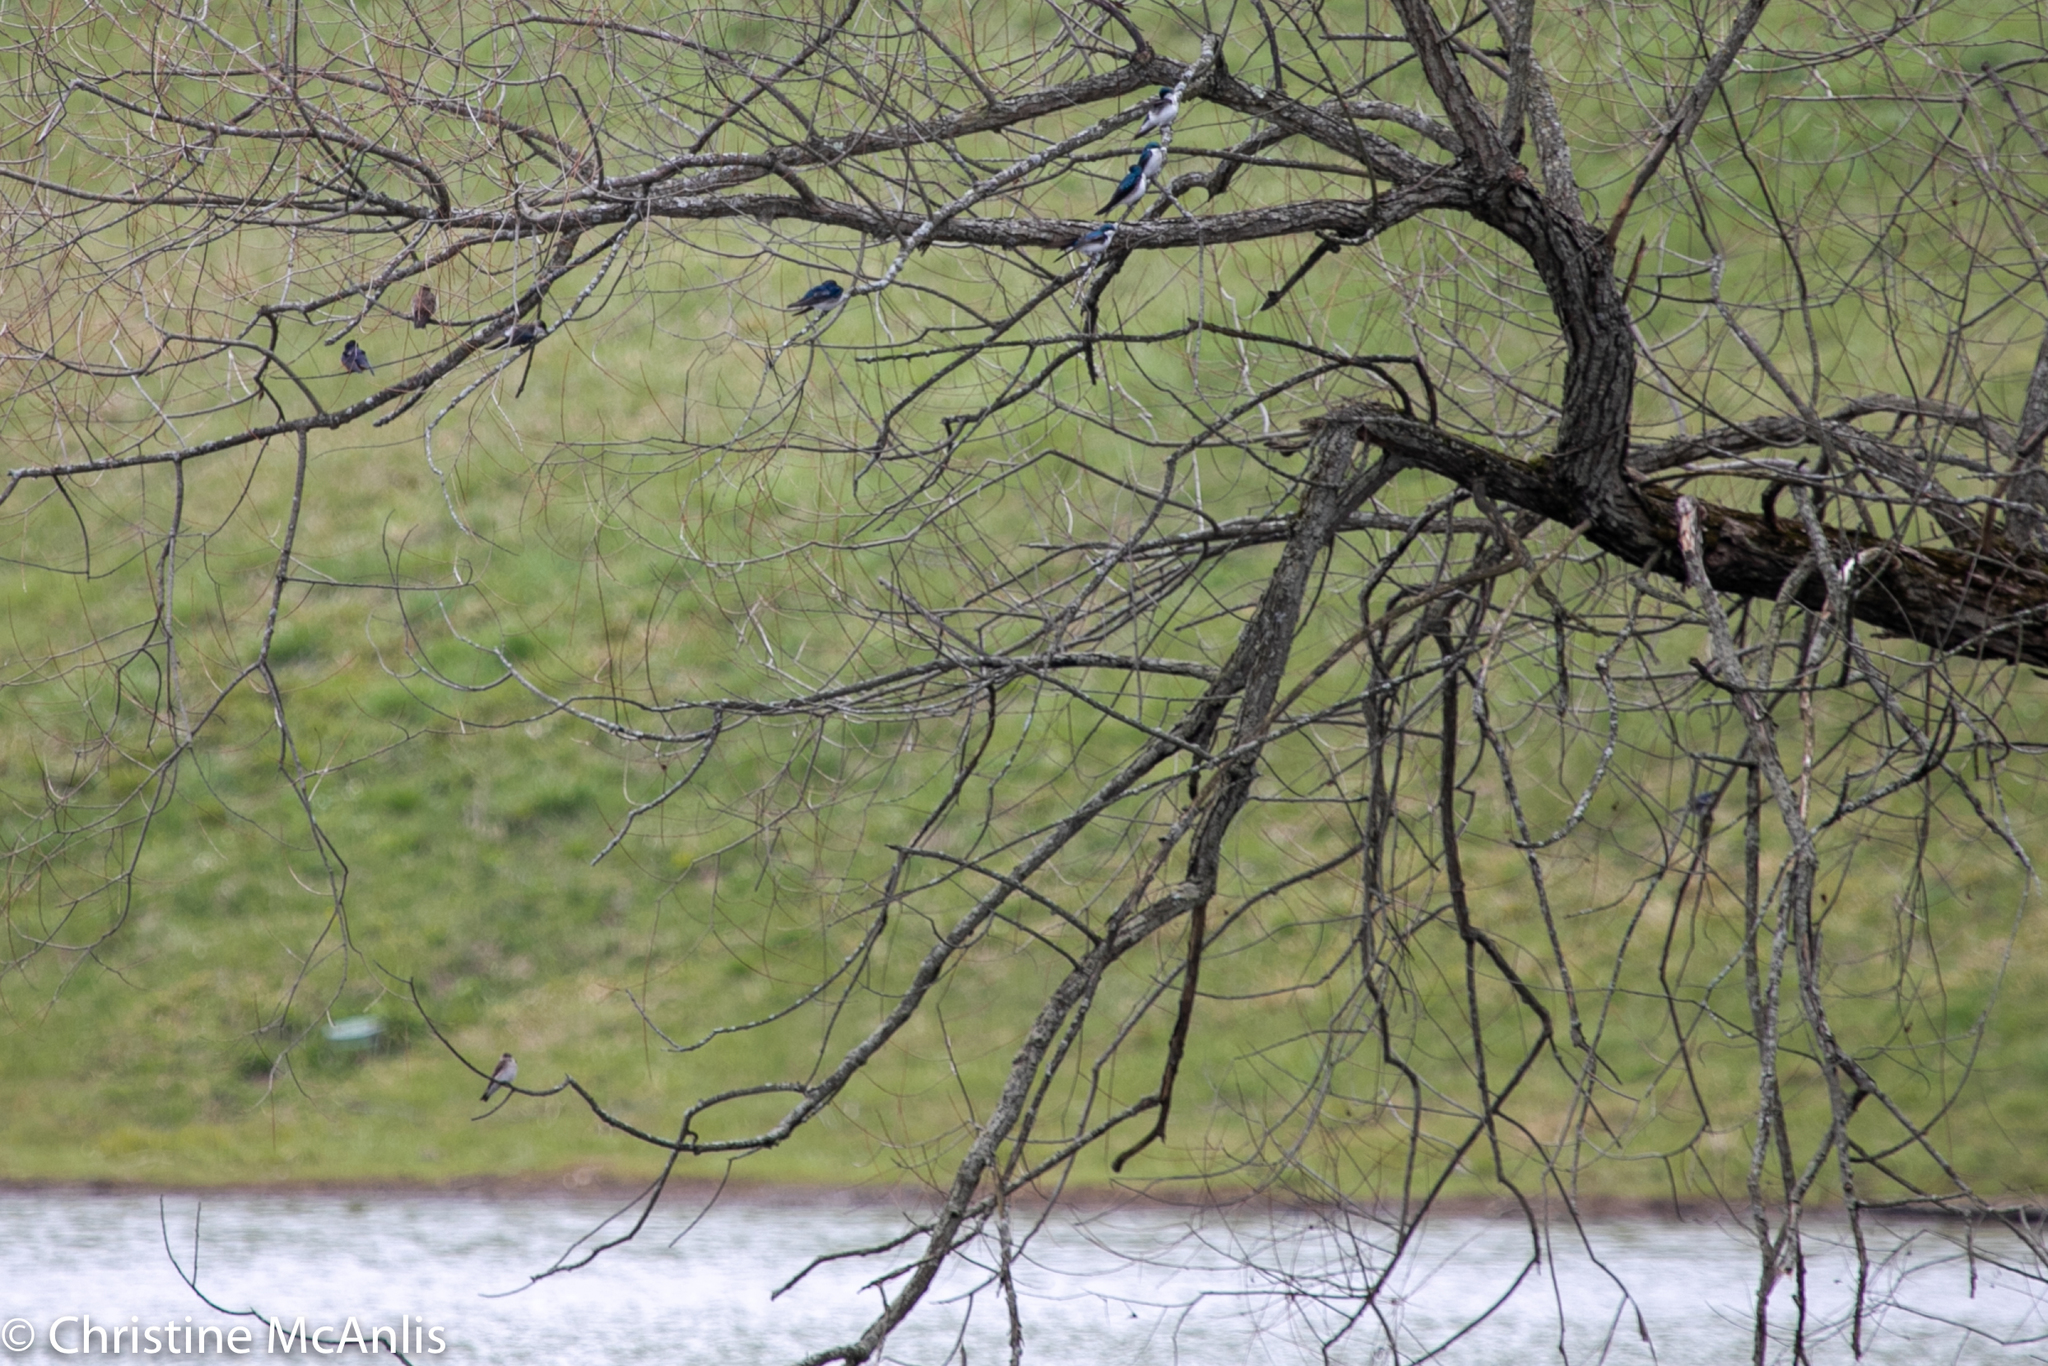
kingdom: Animalia
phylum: Chordata
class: Aves
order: Passeriformes
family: Hirundinidae
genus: Tachycineta
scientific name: Tachycineta bicolor
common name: Tree swallow
